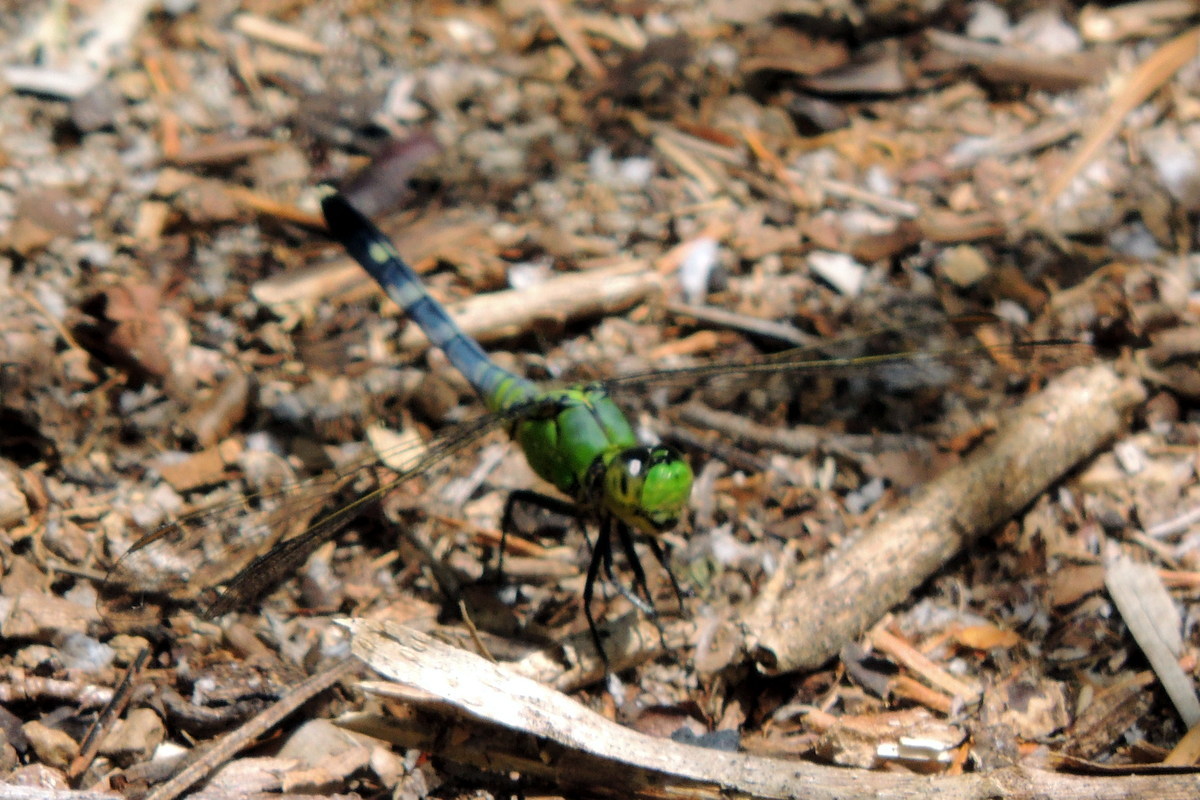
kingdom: Animalia
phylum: Arthropoda
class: Insecta
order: Odonata
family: Libellulidae
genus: Erythemis
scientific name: Erythemis simplicicollis
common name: Eastern pondhawk
